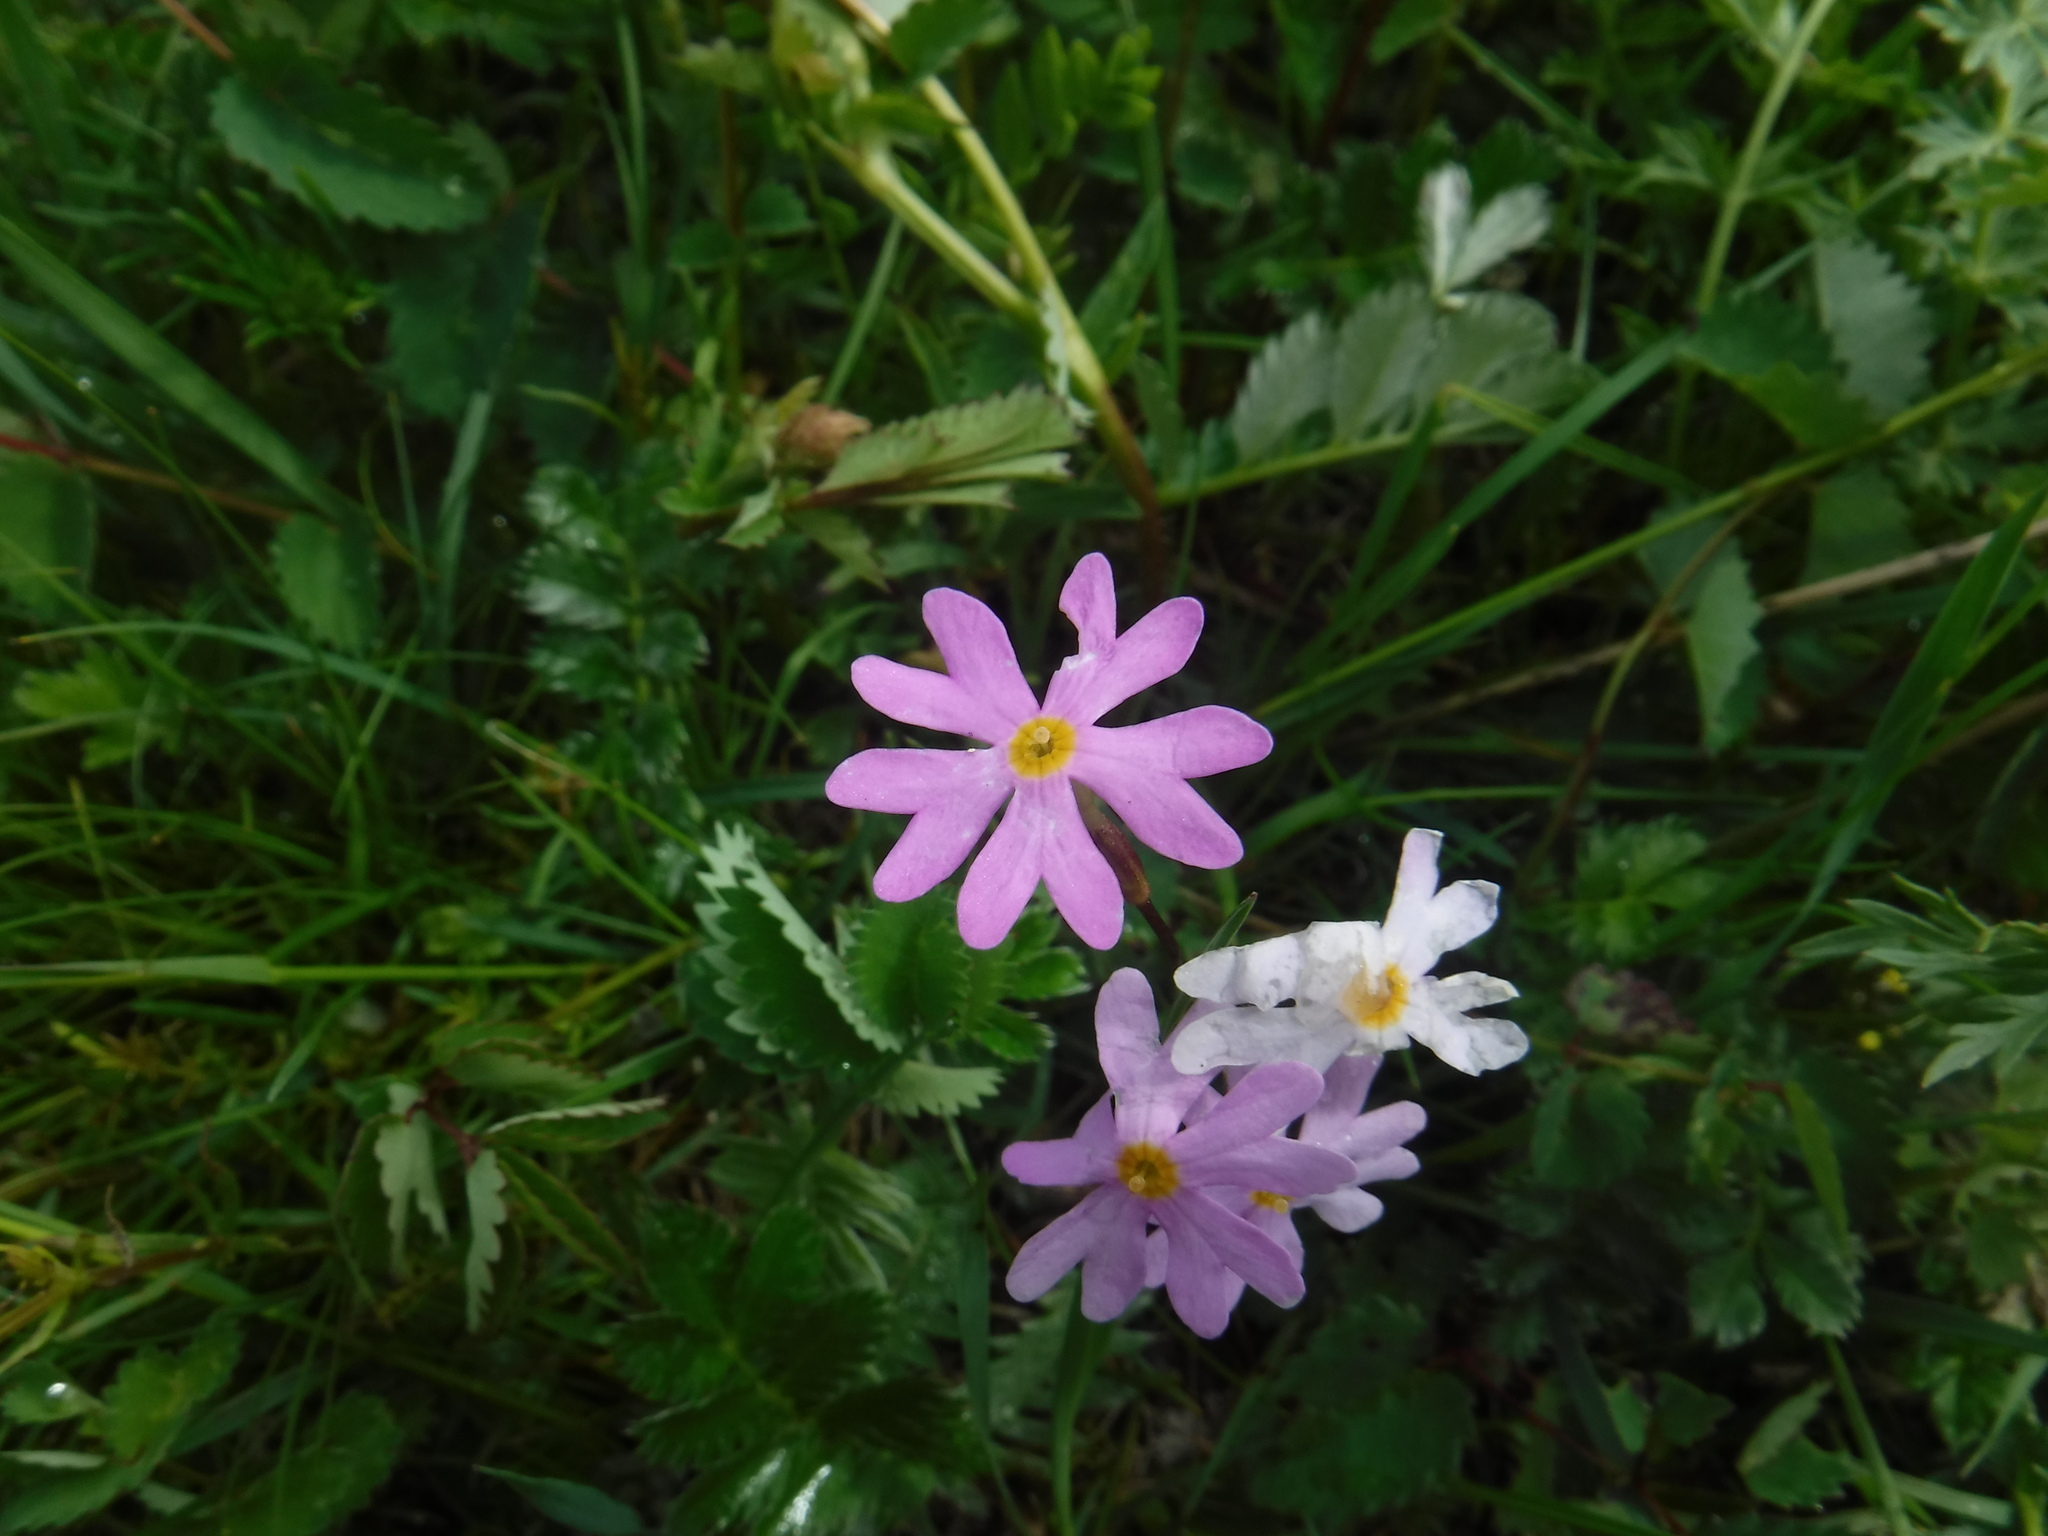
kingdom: Plantae
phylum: Tracheophyta
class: Magnoliopsida
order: Ericales
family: Primulaceae
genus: Primula
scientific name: Primula nutans
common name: Siberian primrose
